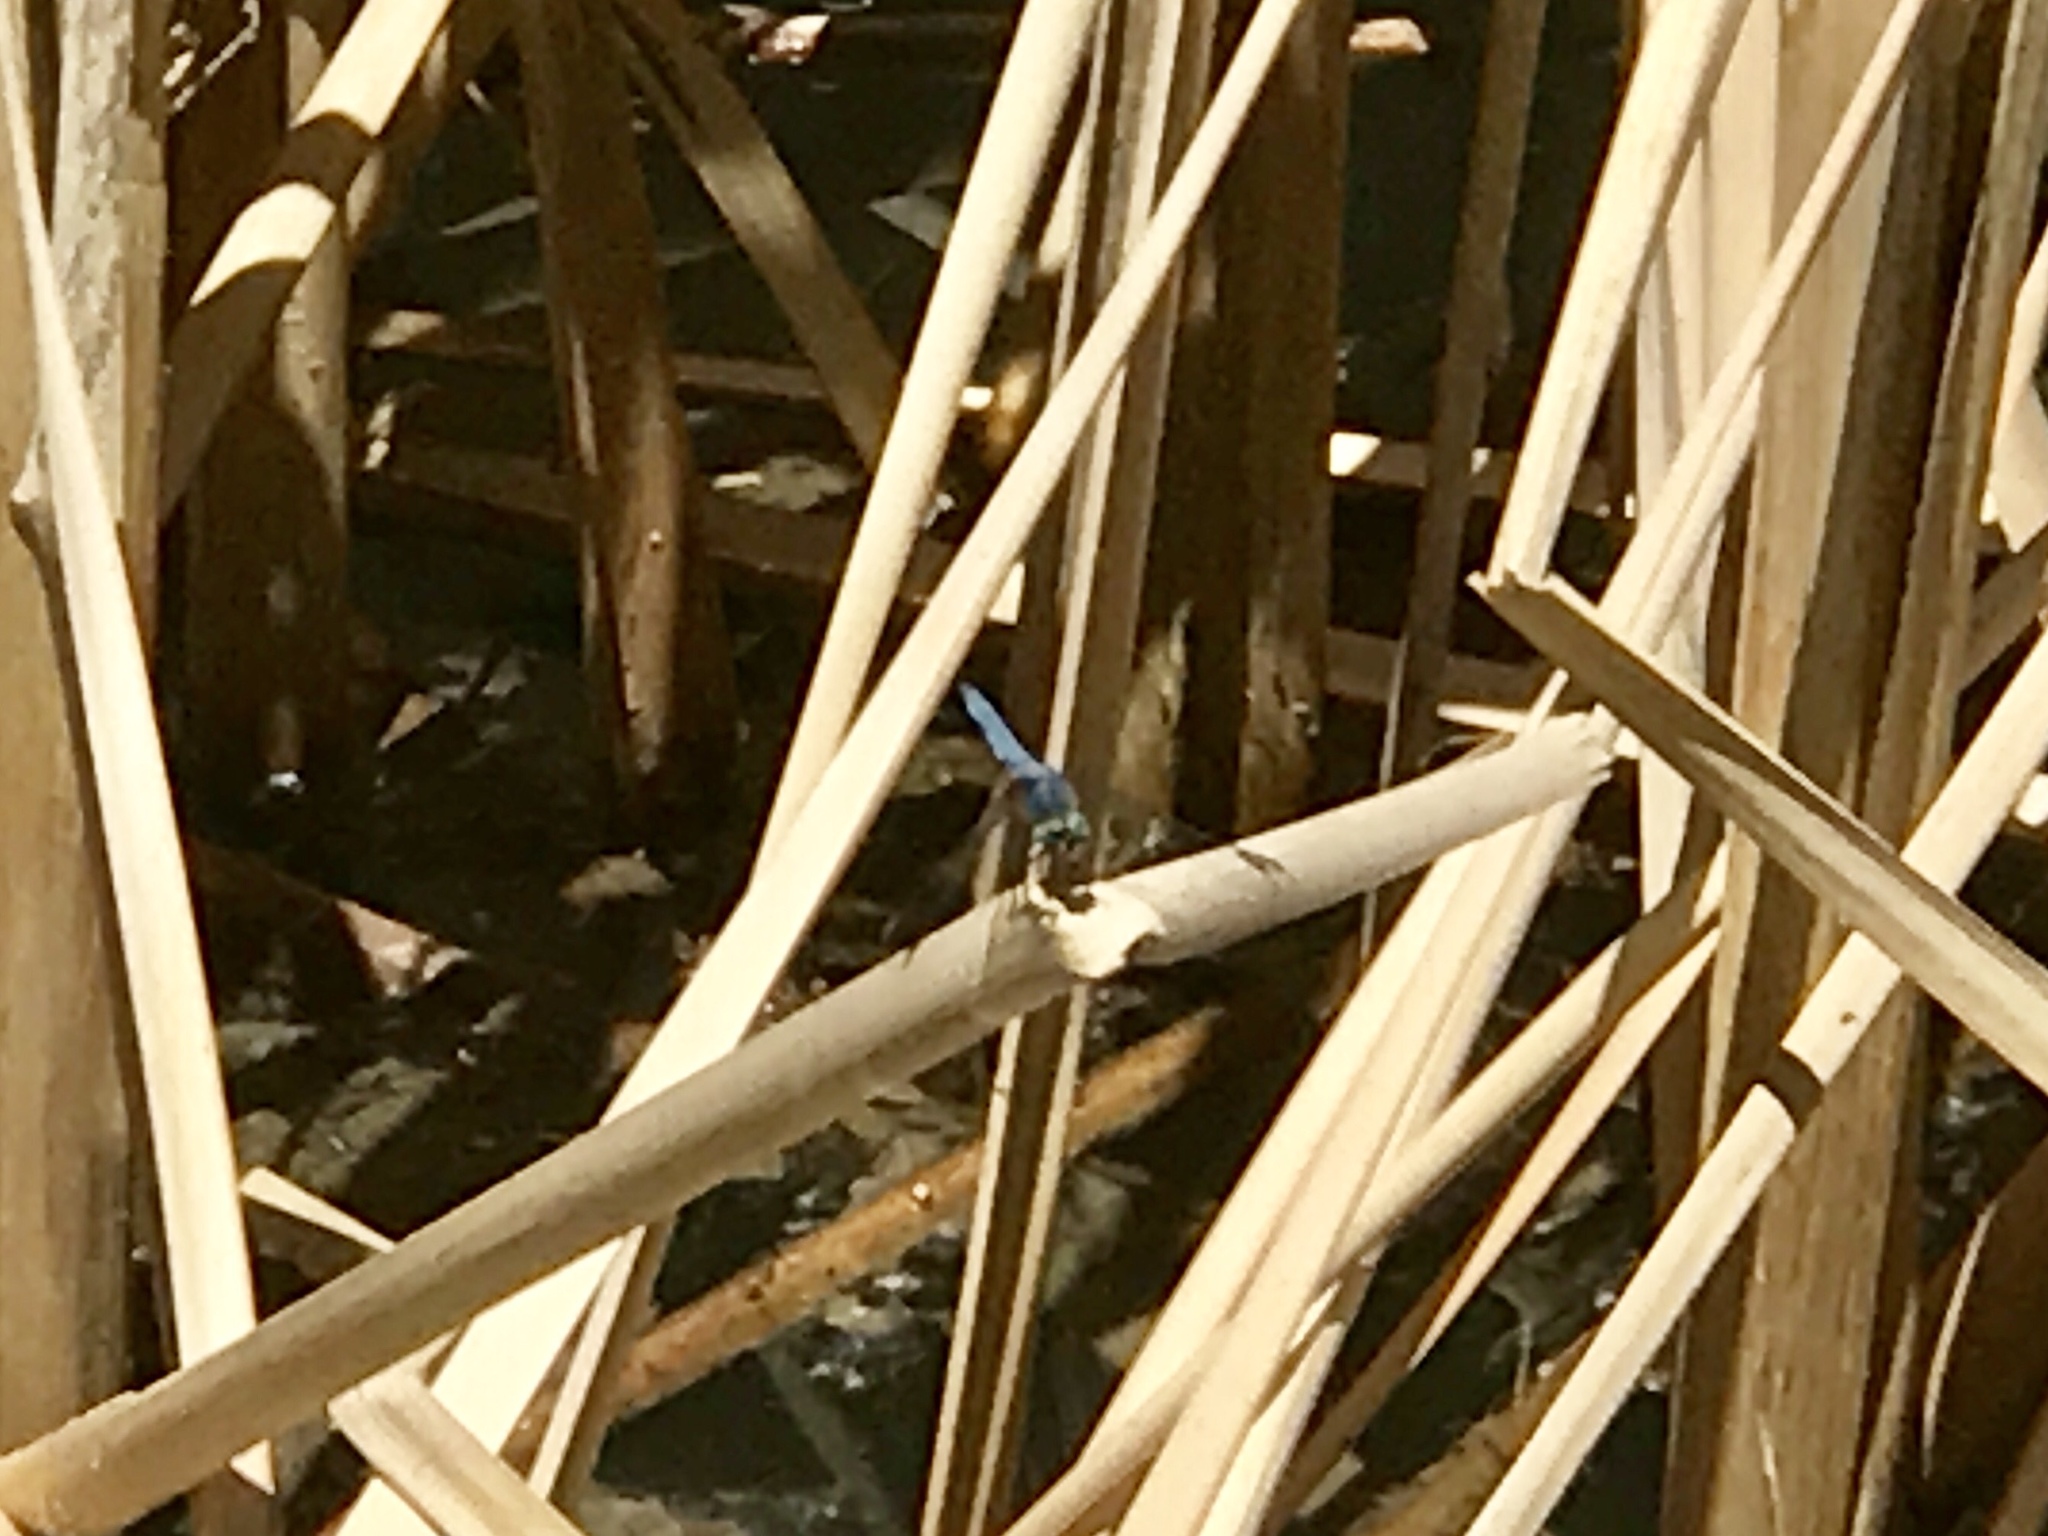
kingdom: Animalia
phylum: Arthropoda
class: Insecta
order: Odonata
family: Libellulidae
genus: Pachydiplax
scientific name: Pachydiplax longipennis
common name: Blue dasher
